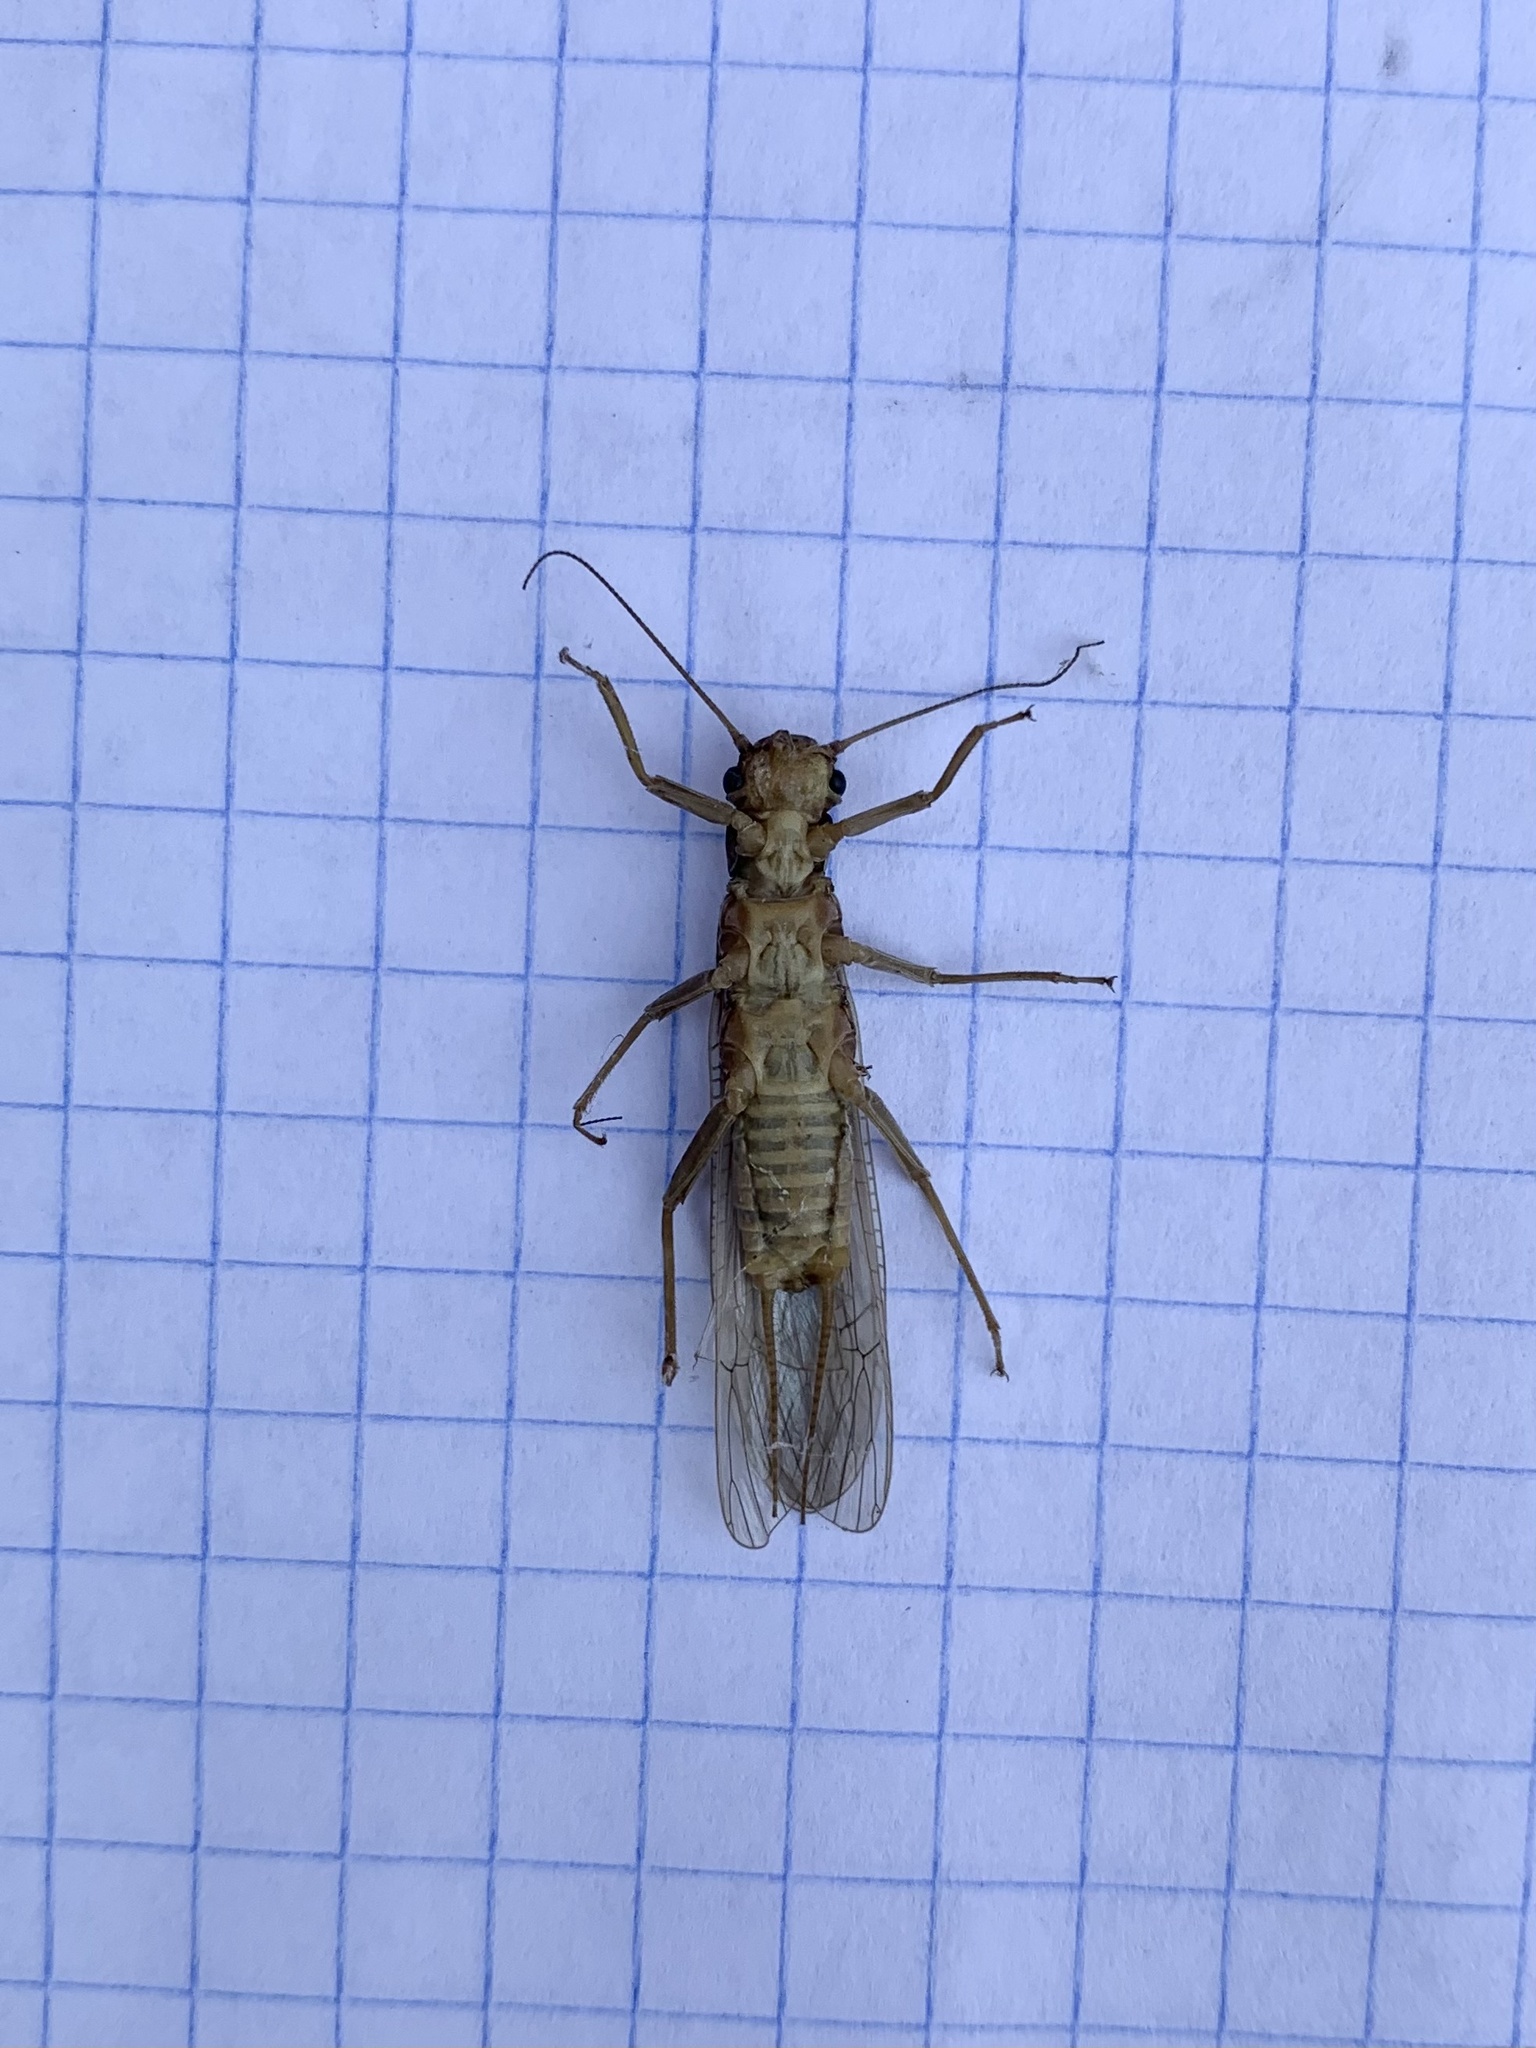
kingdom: Animalia
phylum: Arthropoda
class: Insecta
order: Plecoptera
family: Perlodidae
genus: Isoperla
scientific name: Isoperla bithynica
